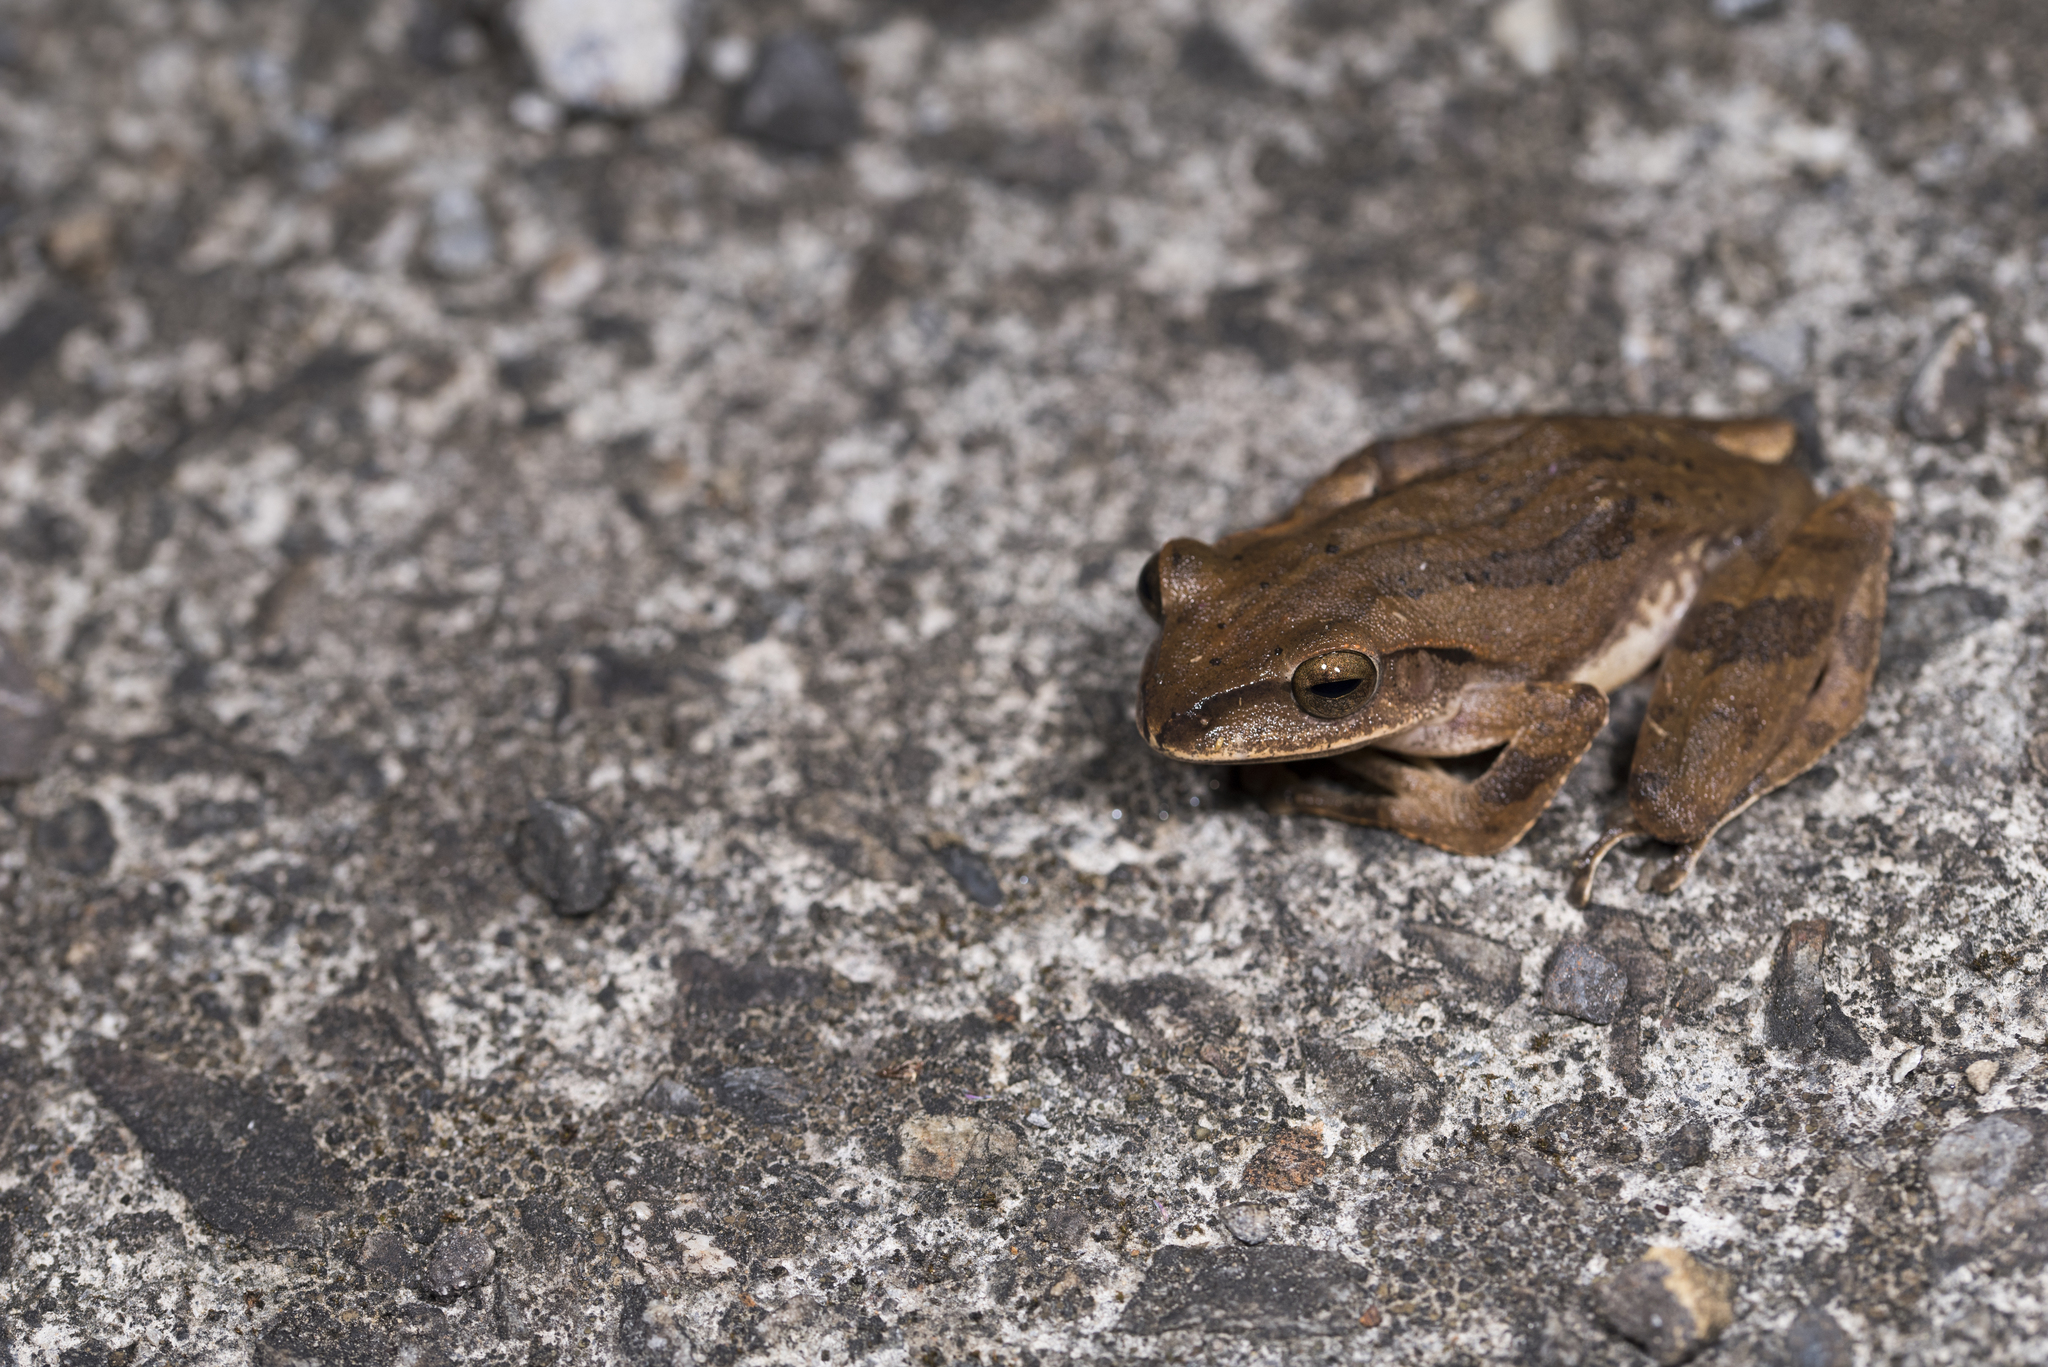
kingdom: Animalia
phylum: Chordata
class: Amphibia
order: Anura
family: Rhacophoridae
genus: Polypedates
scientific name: Polypedates braueri
